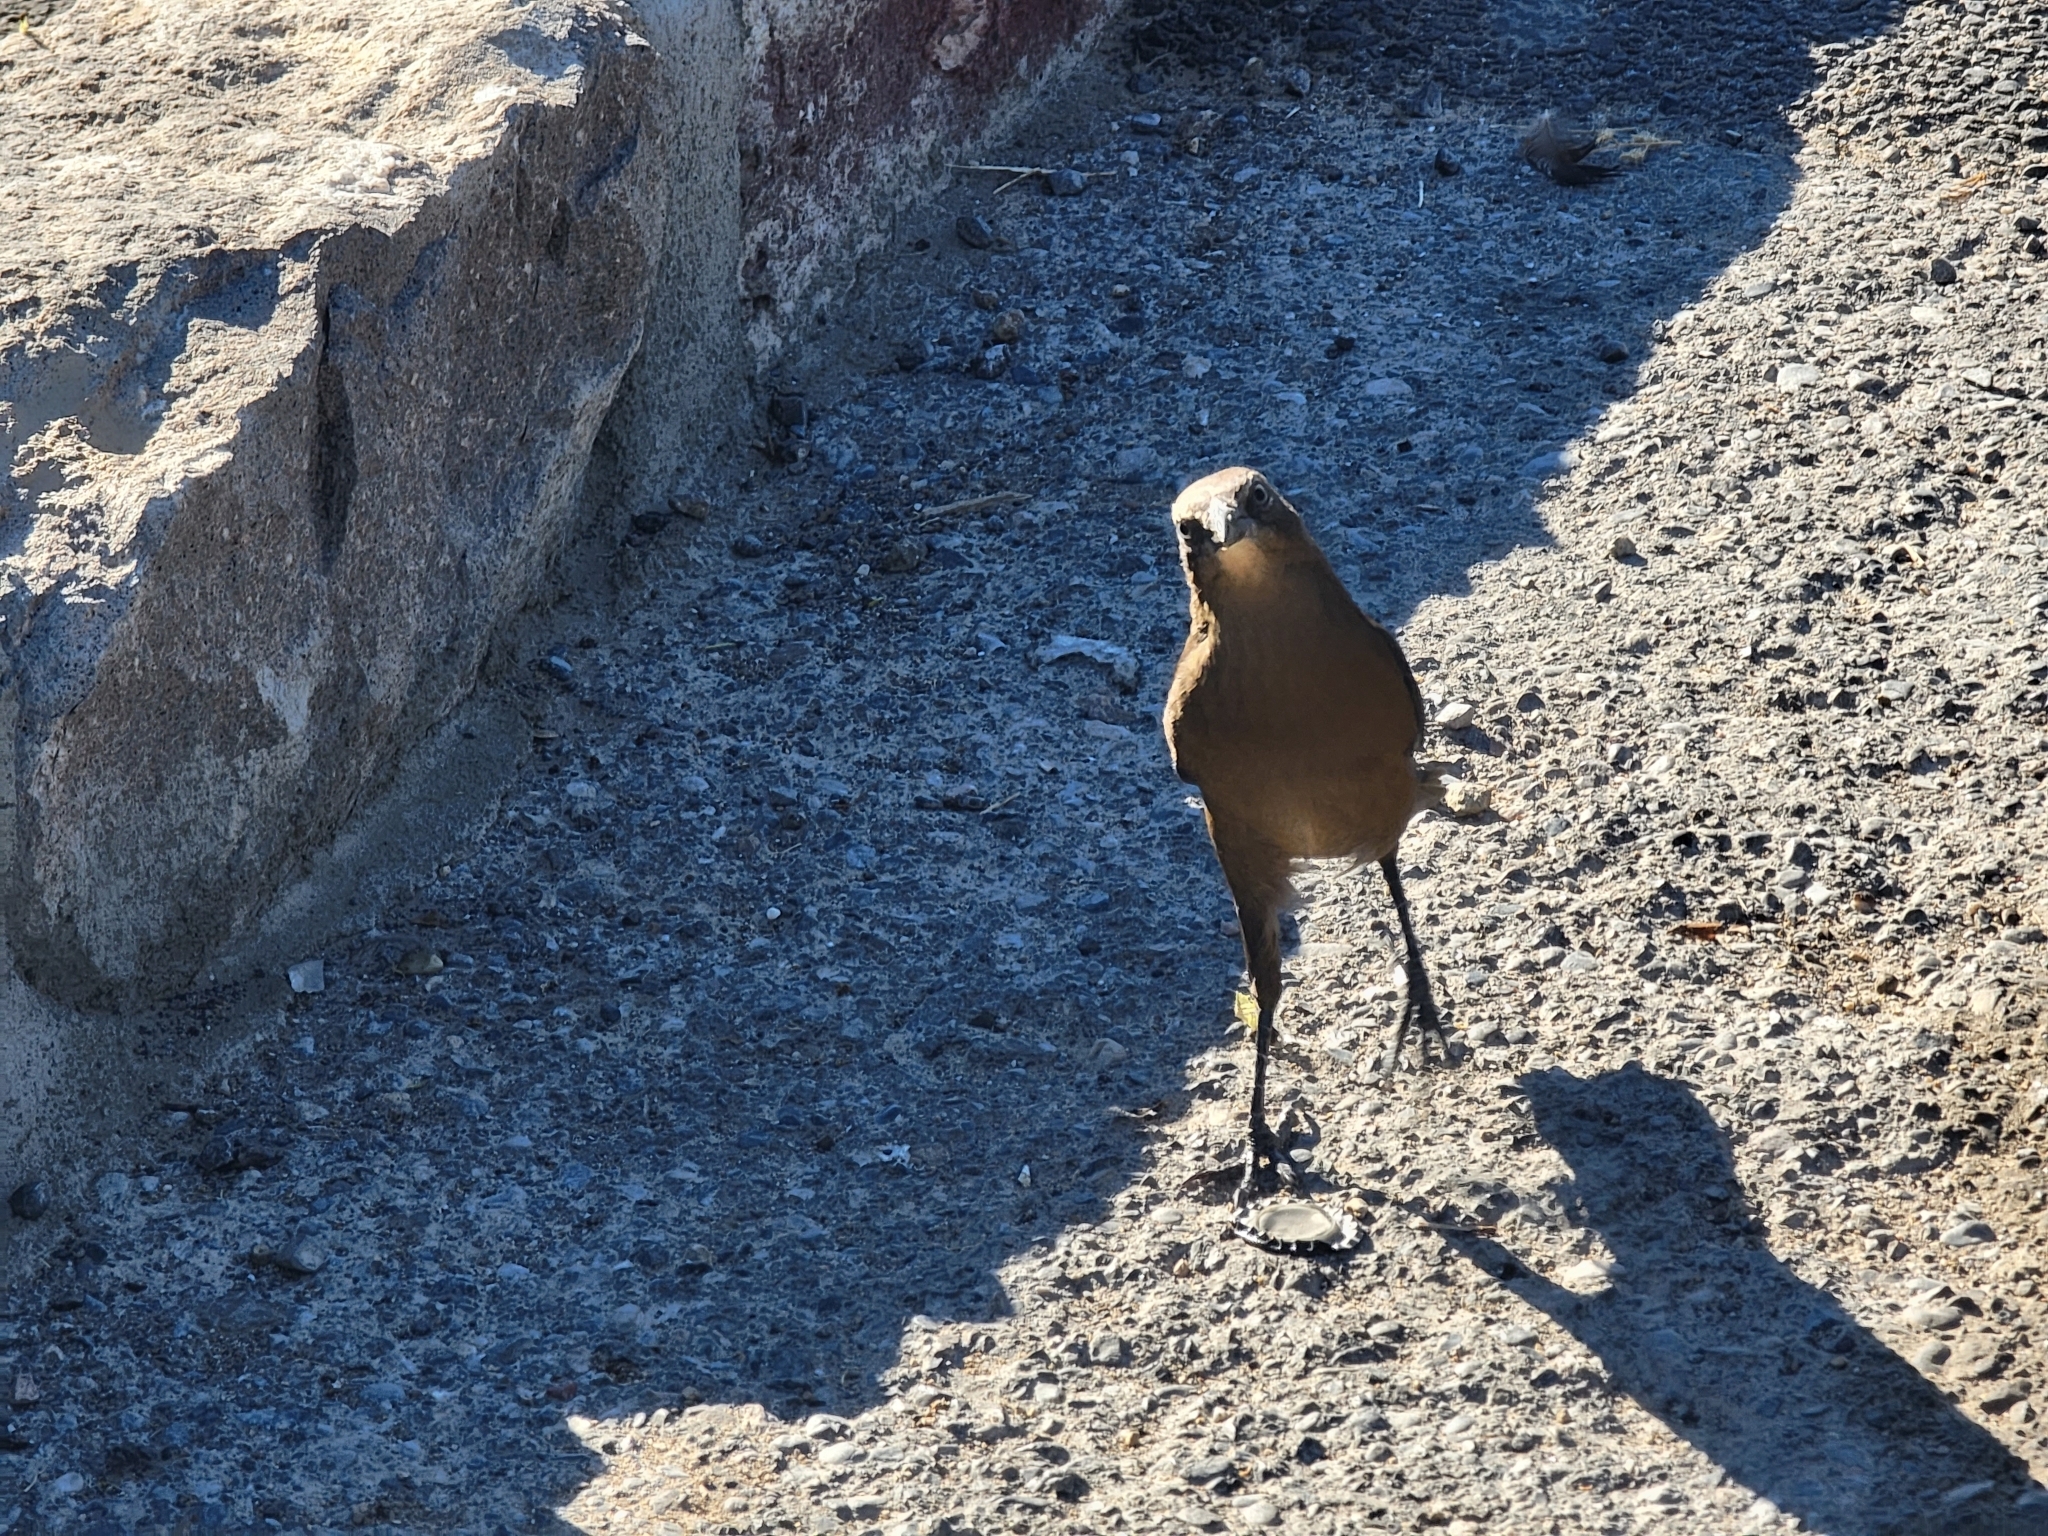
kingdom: Animalia
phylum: Chordata
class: Aves
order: Passeriformes
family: Icteridae
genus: Quiscalus
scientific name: Quiscalus mexicanus
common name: Great-tailed grackle
